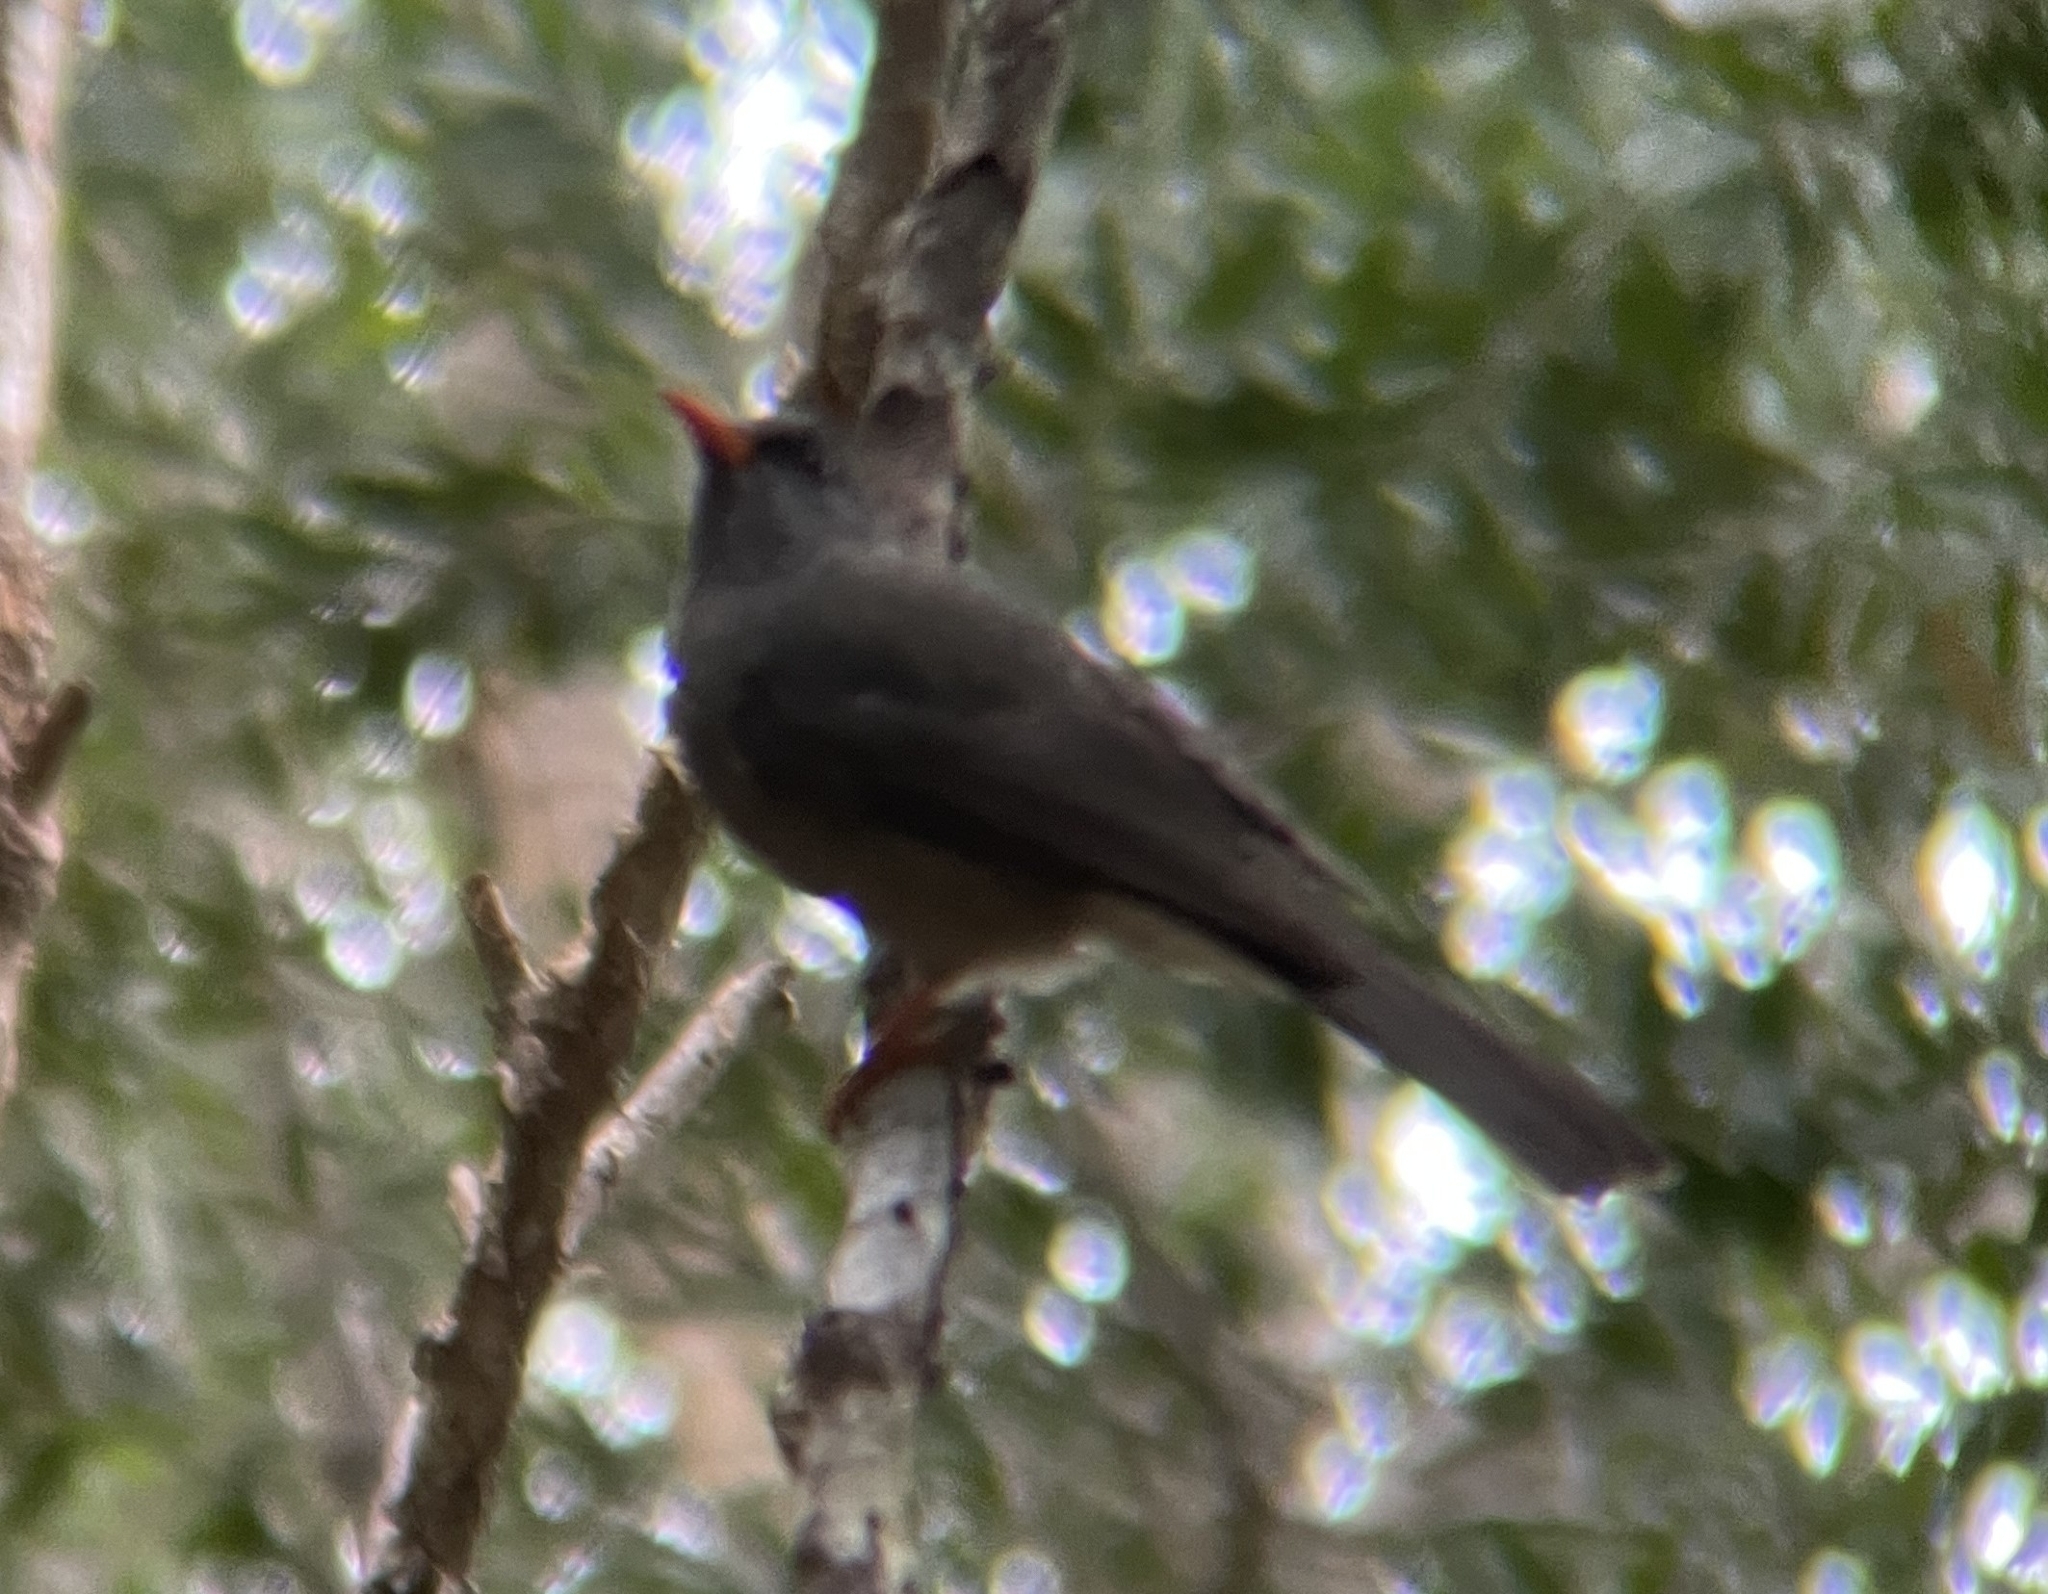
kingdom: Animalia
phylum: Chordata
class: Aves
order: Passeriformes
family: Pycnonotidae
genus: Hypsipetes
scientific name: Hypsipetes olivaceus
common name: Mauritius bulbul
